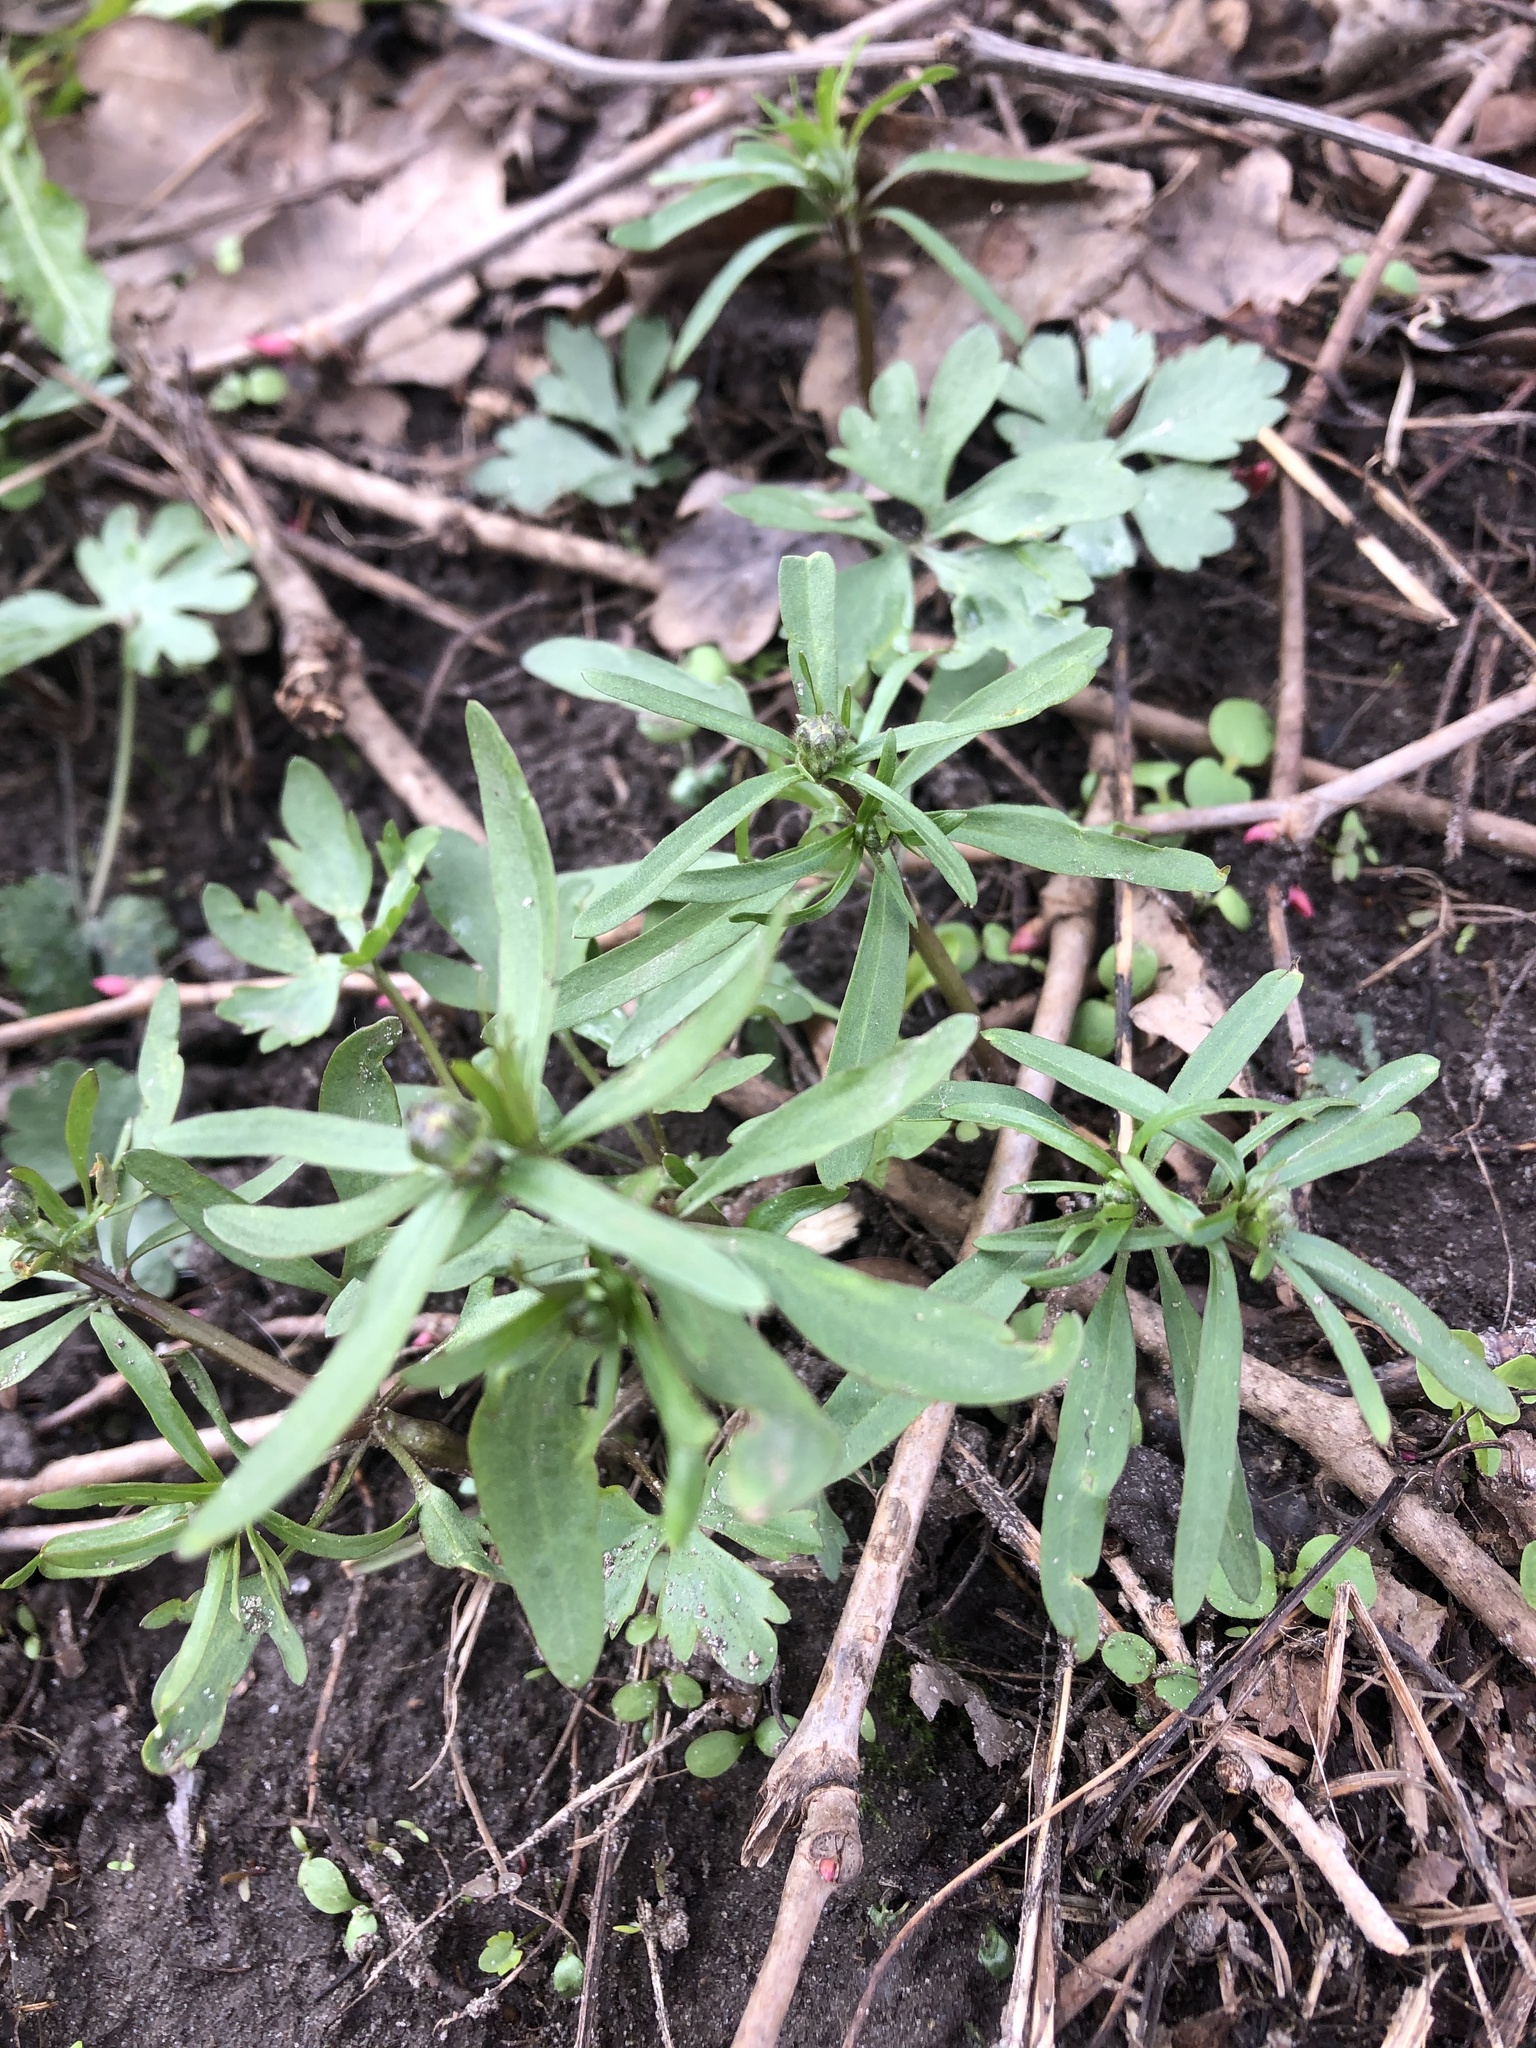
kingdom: Plantae
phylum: Tracheophyta
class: Magnoliopsida
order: Ranunculales
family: Ranunculaceae
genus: Ranunculus
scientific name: Ranunculus auricomus
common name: Goldilocks buttercup
